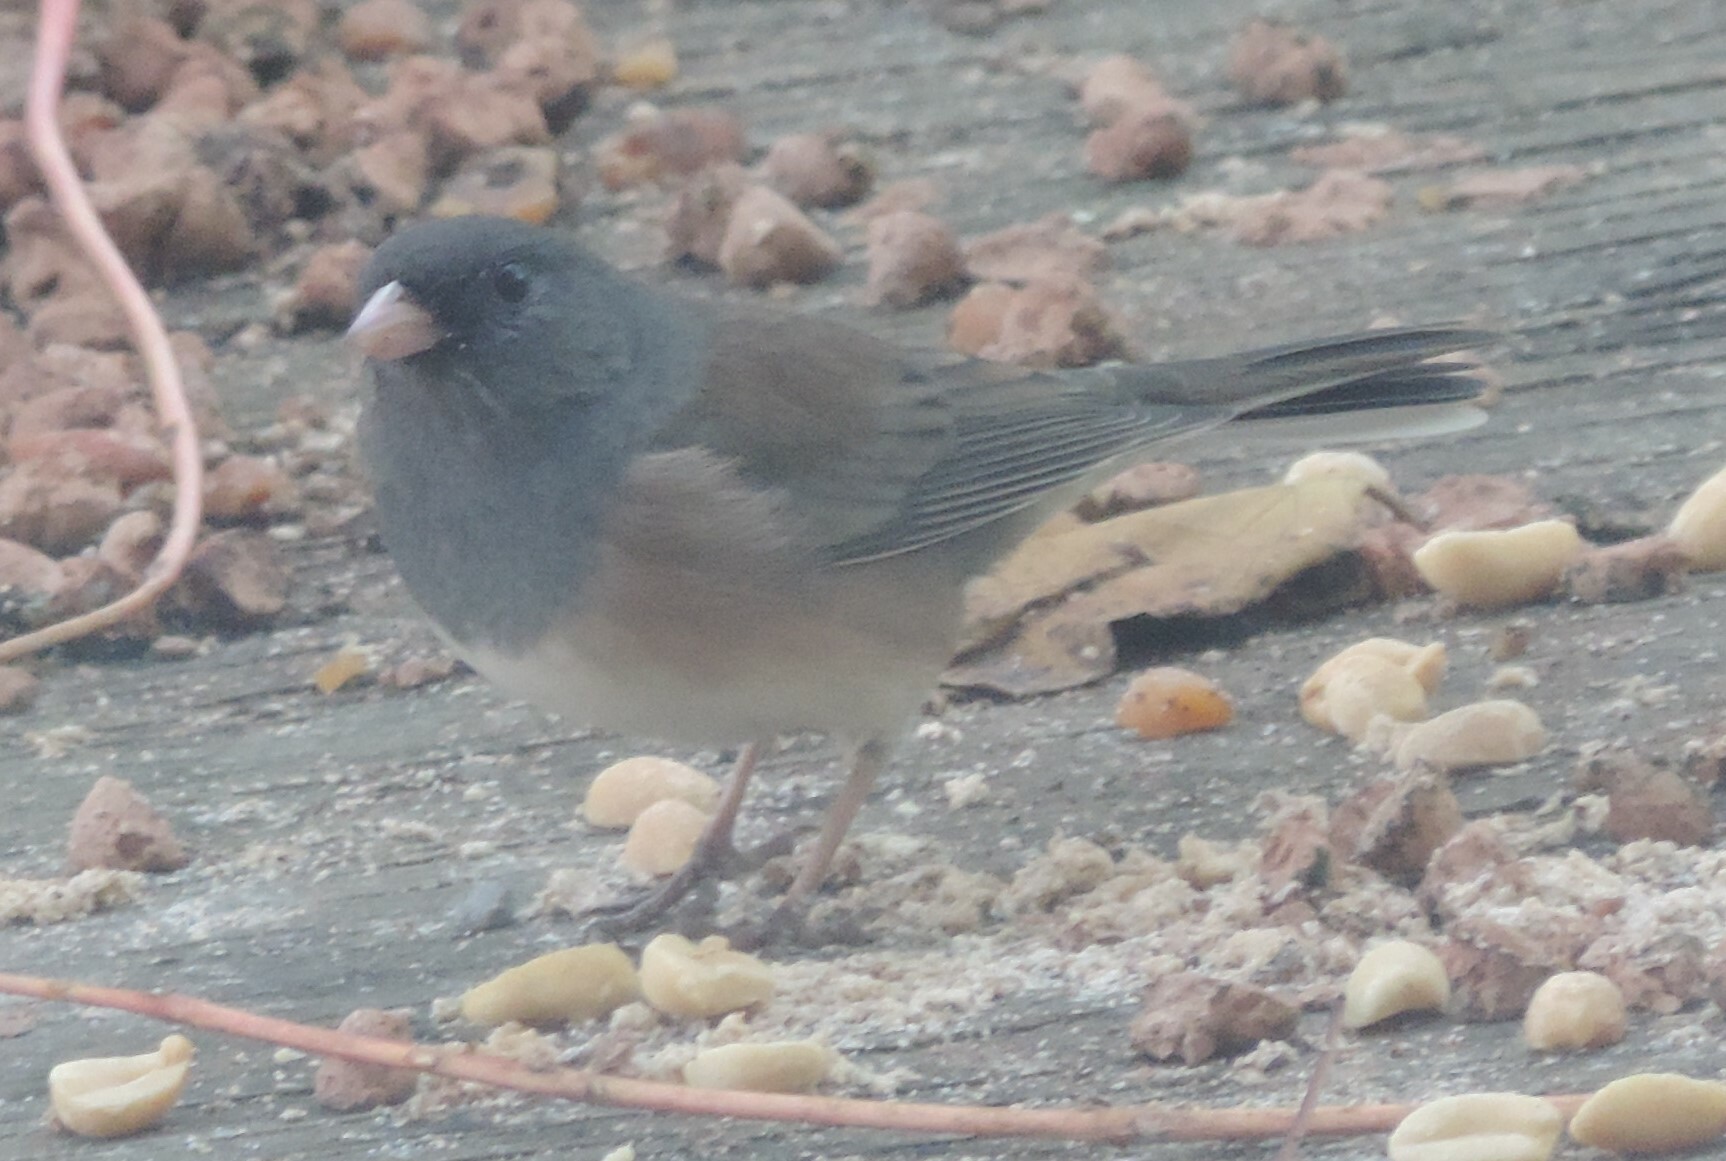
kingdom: Animalia
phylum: Chordata
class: Aves
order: Passeriformes
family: Passerellidae
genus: Junco
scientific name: Junco hyemalis
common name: Dark-eyed junco
